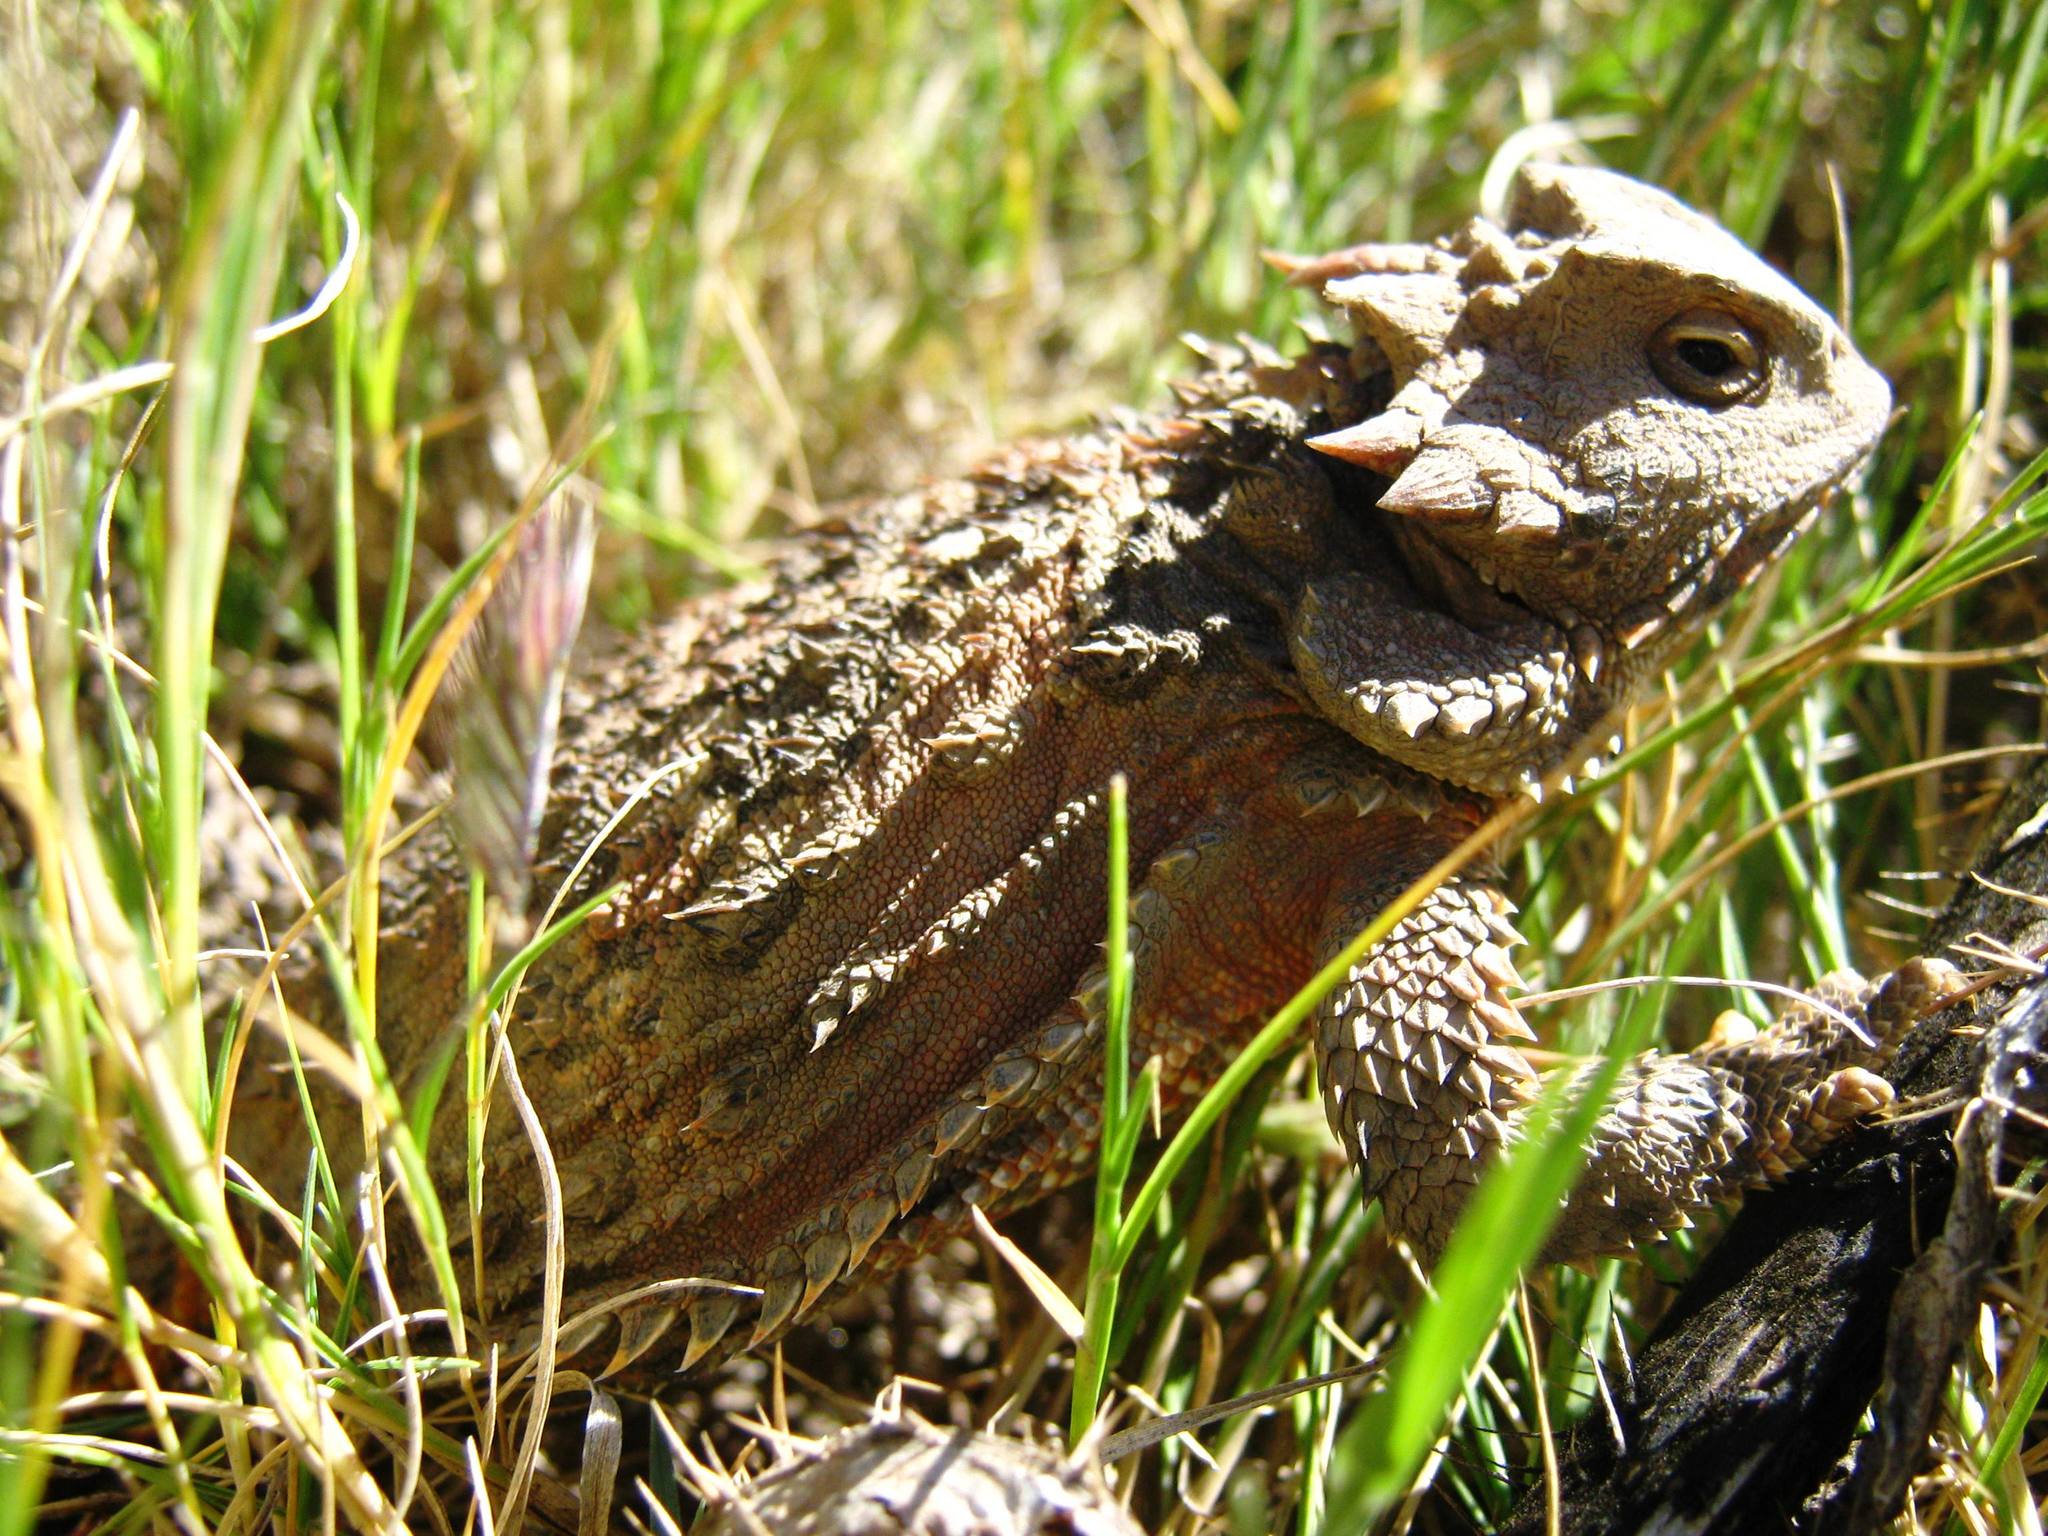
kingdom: Animalia
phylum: Chordata
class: Squamata
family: Phrynosomatidae
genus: Phrynosoma
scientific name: Phrynosoma orbiculare
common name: Mountain horned lizard
